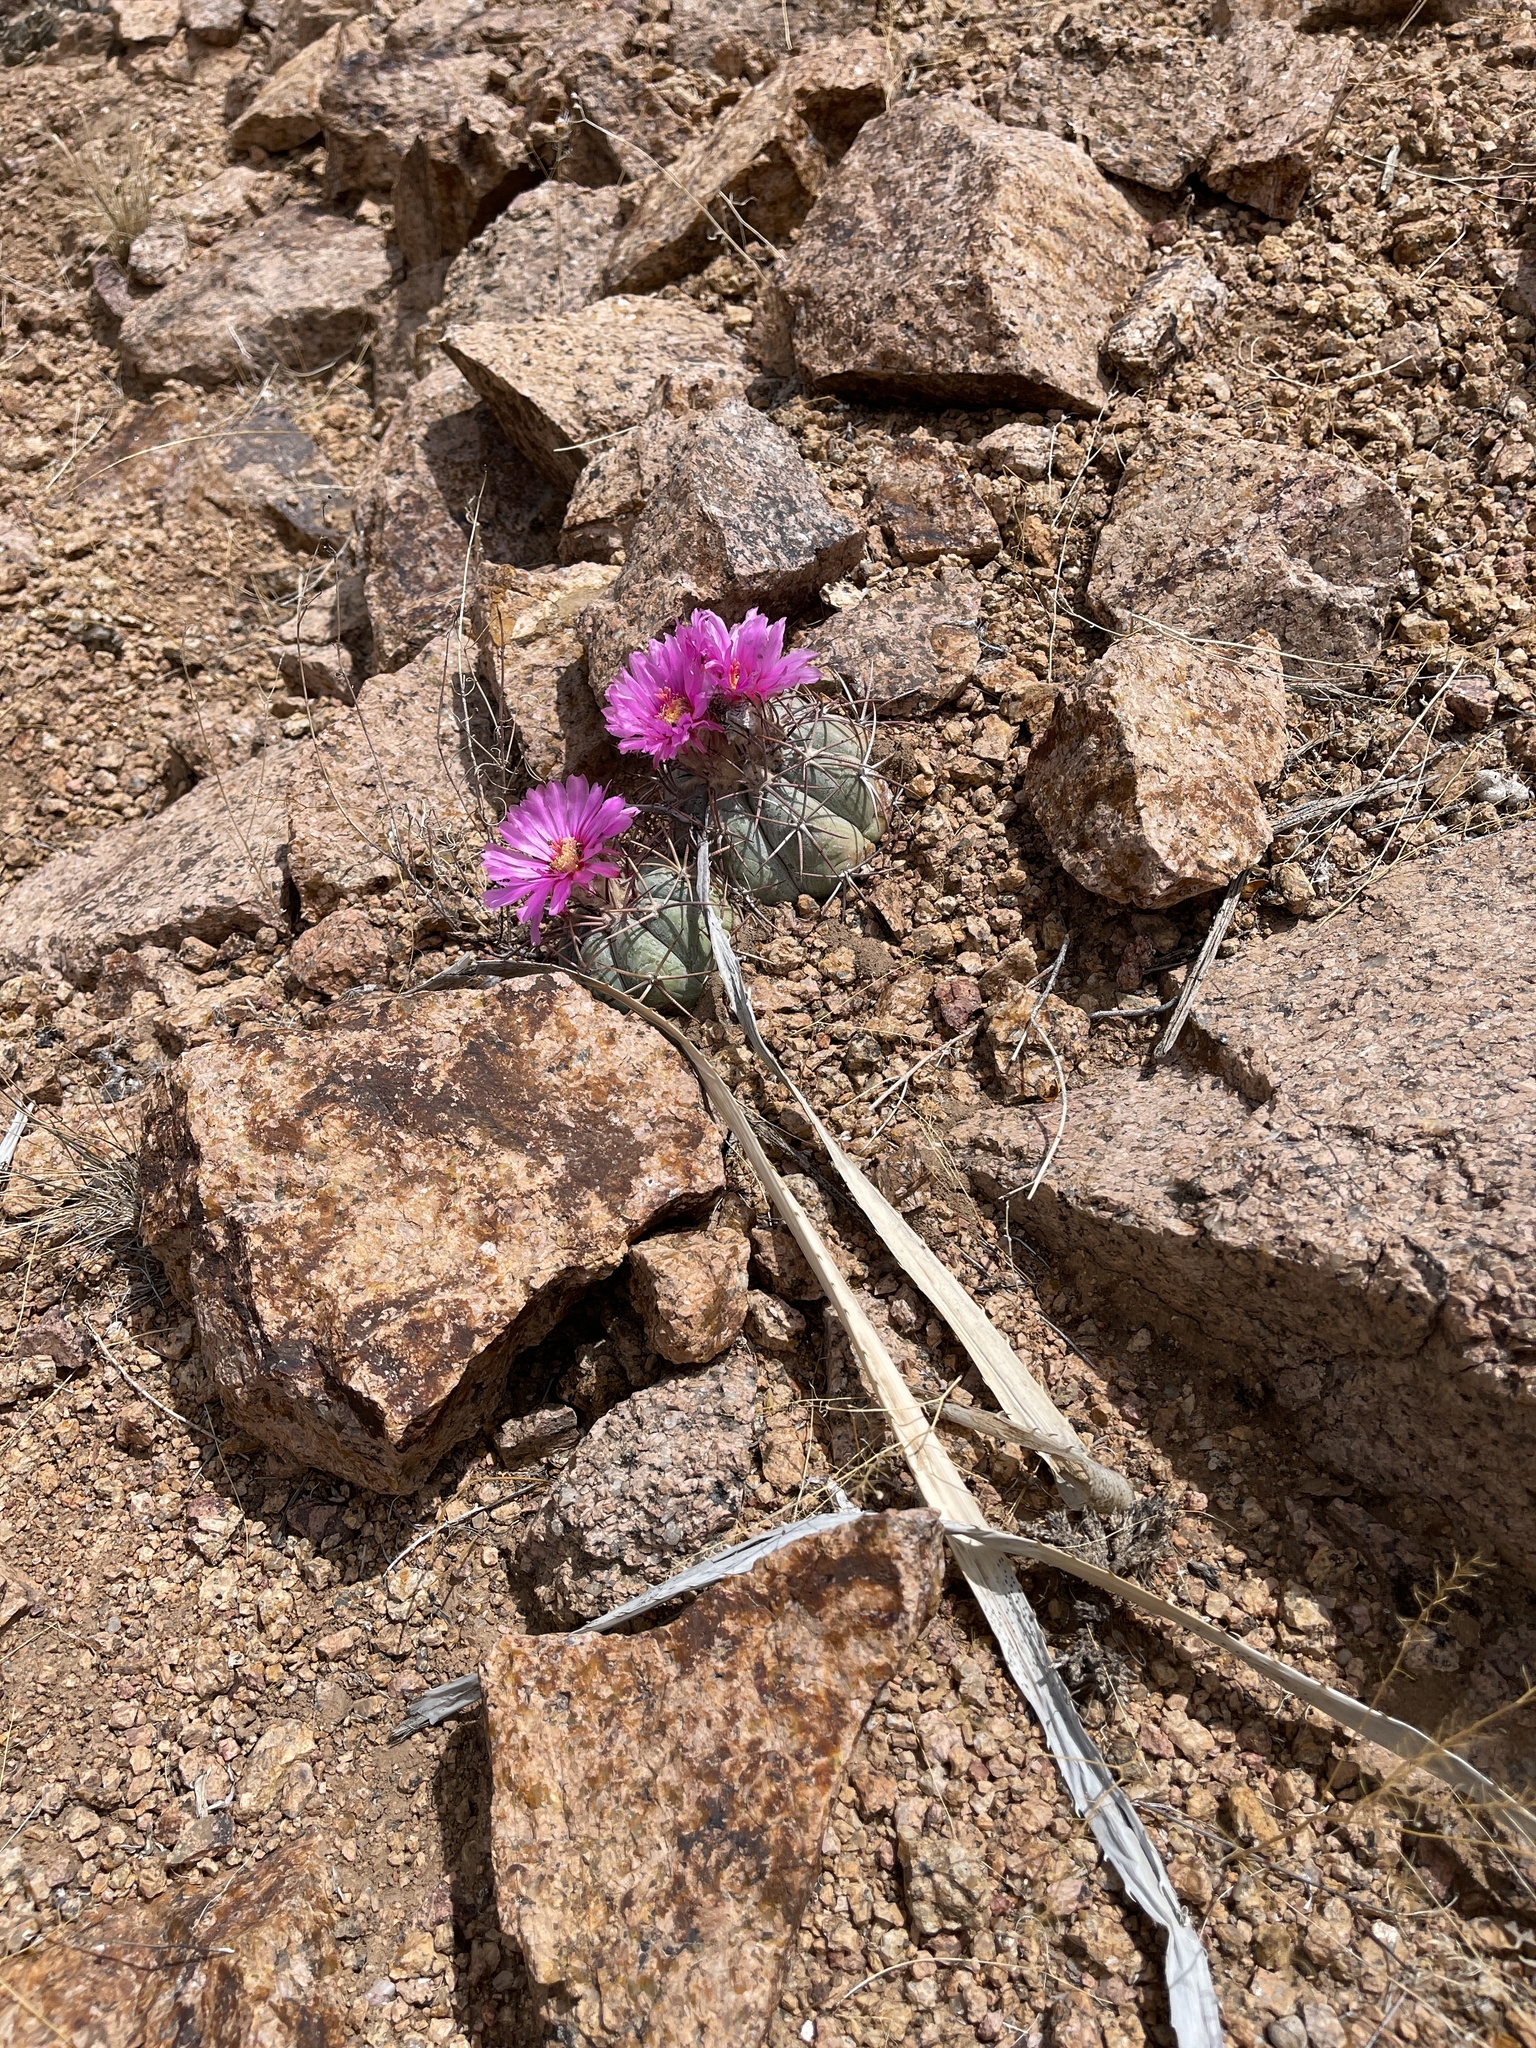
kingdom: Plantae
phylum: Tracheophyta
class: Magnoliopsida
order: Caryophyllales
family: Cactaceae
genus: Echinocactus
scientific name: Echinocactus horizonthalonius
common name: Devilshead
